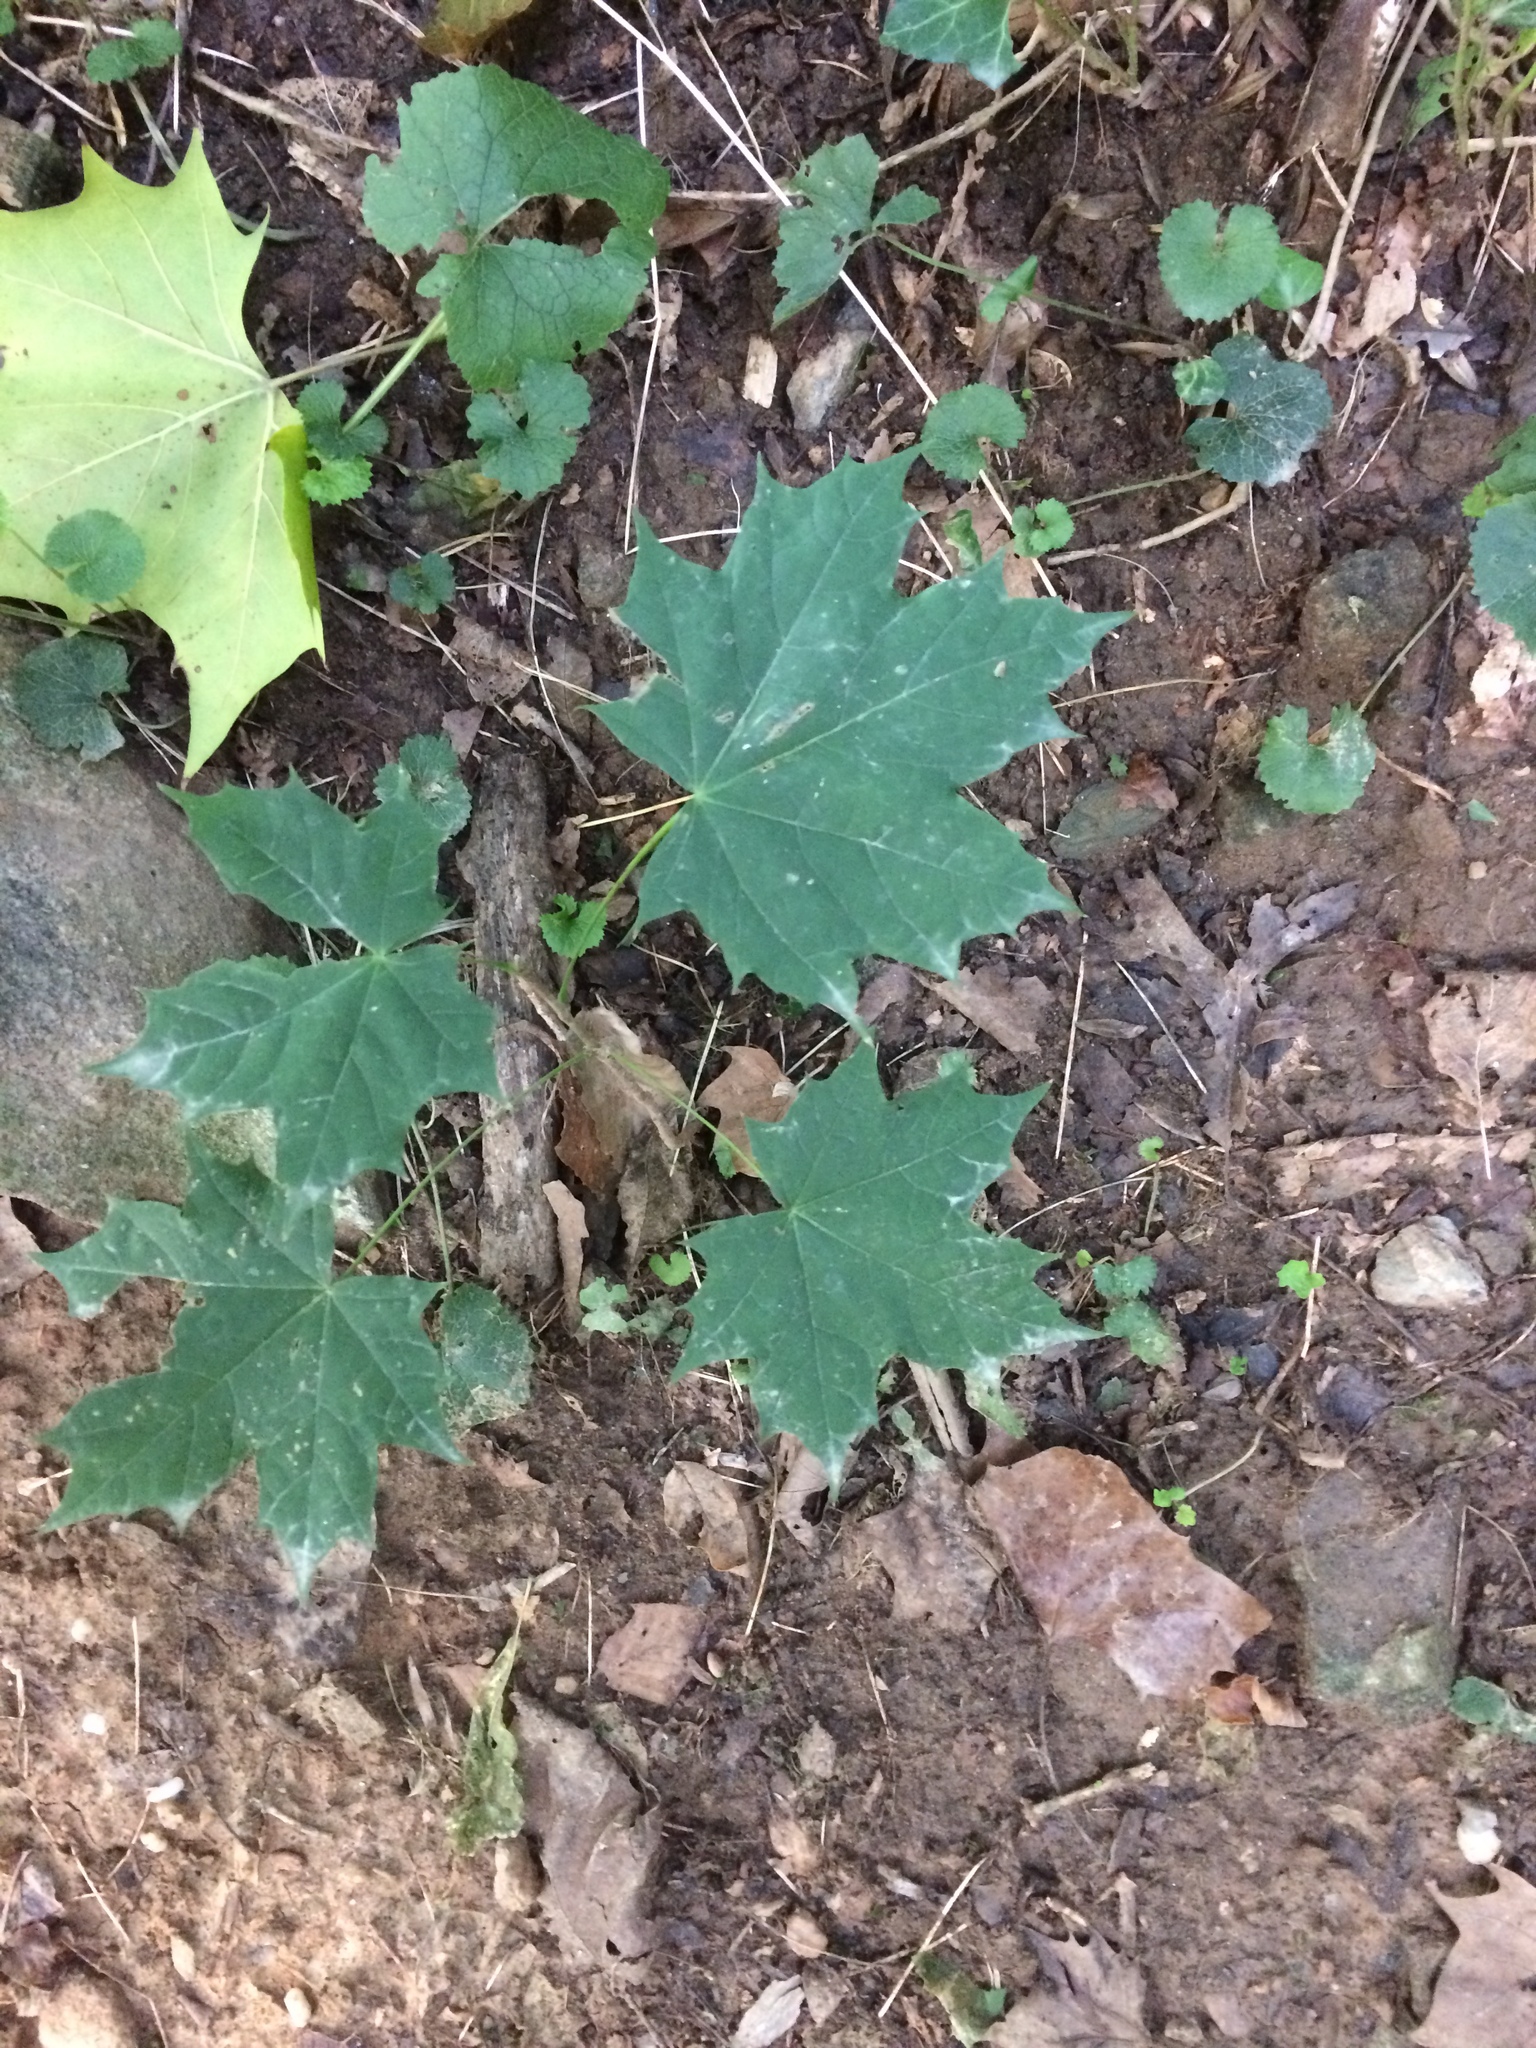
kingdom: Plantae
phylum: Tracheophyta
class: Magnoliopsida
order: Sapindales
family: Sapindaceae
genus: Acer
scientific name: Acer platanoides
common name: Norway maple
